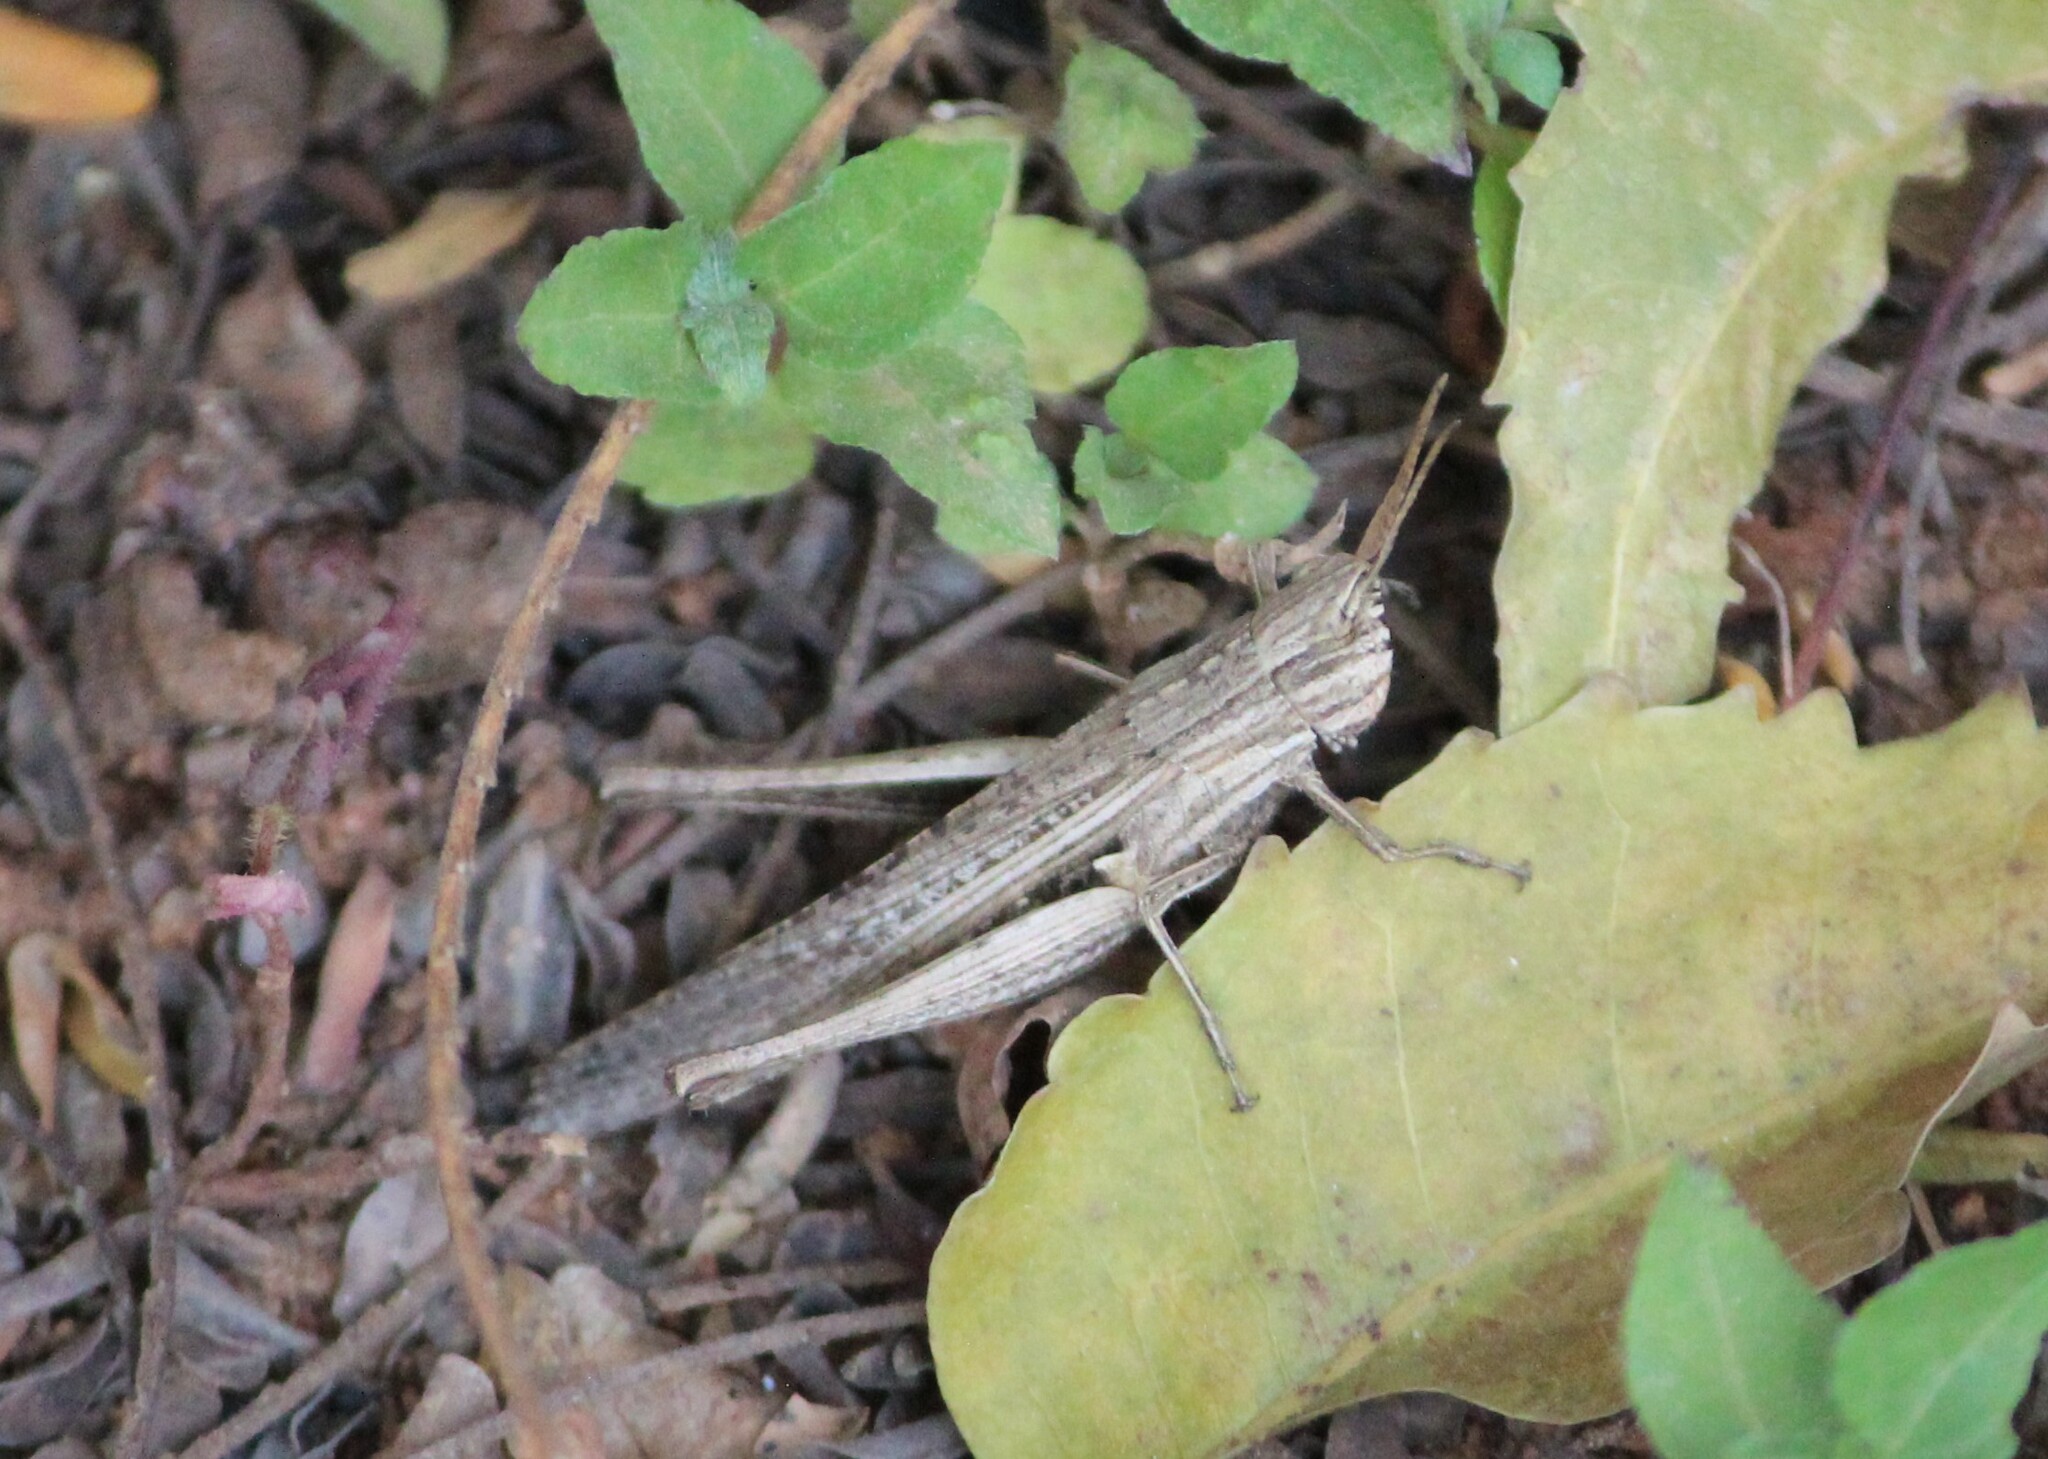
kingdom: Animalia
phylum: Arthropoda
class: Insecta
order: Orthoptera
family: Acrididae
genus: Phlaeoba
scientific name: Phlaeoba infumata
